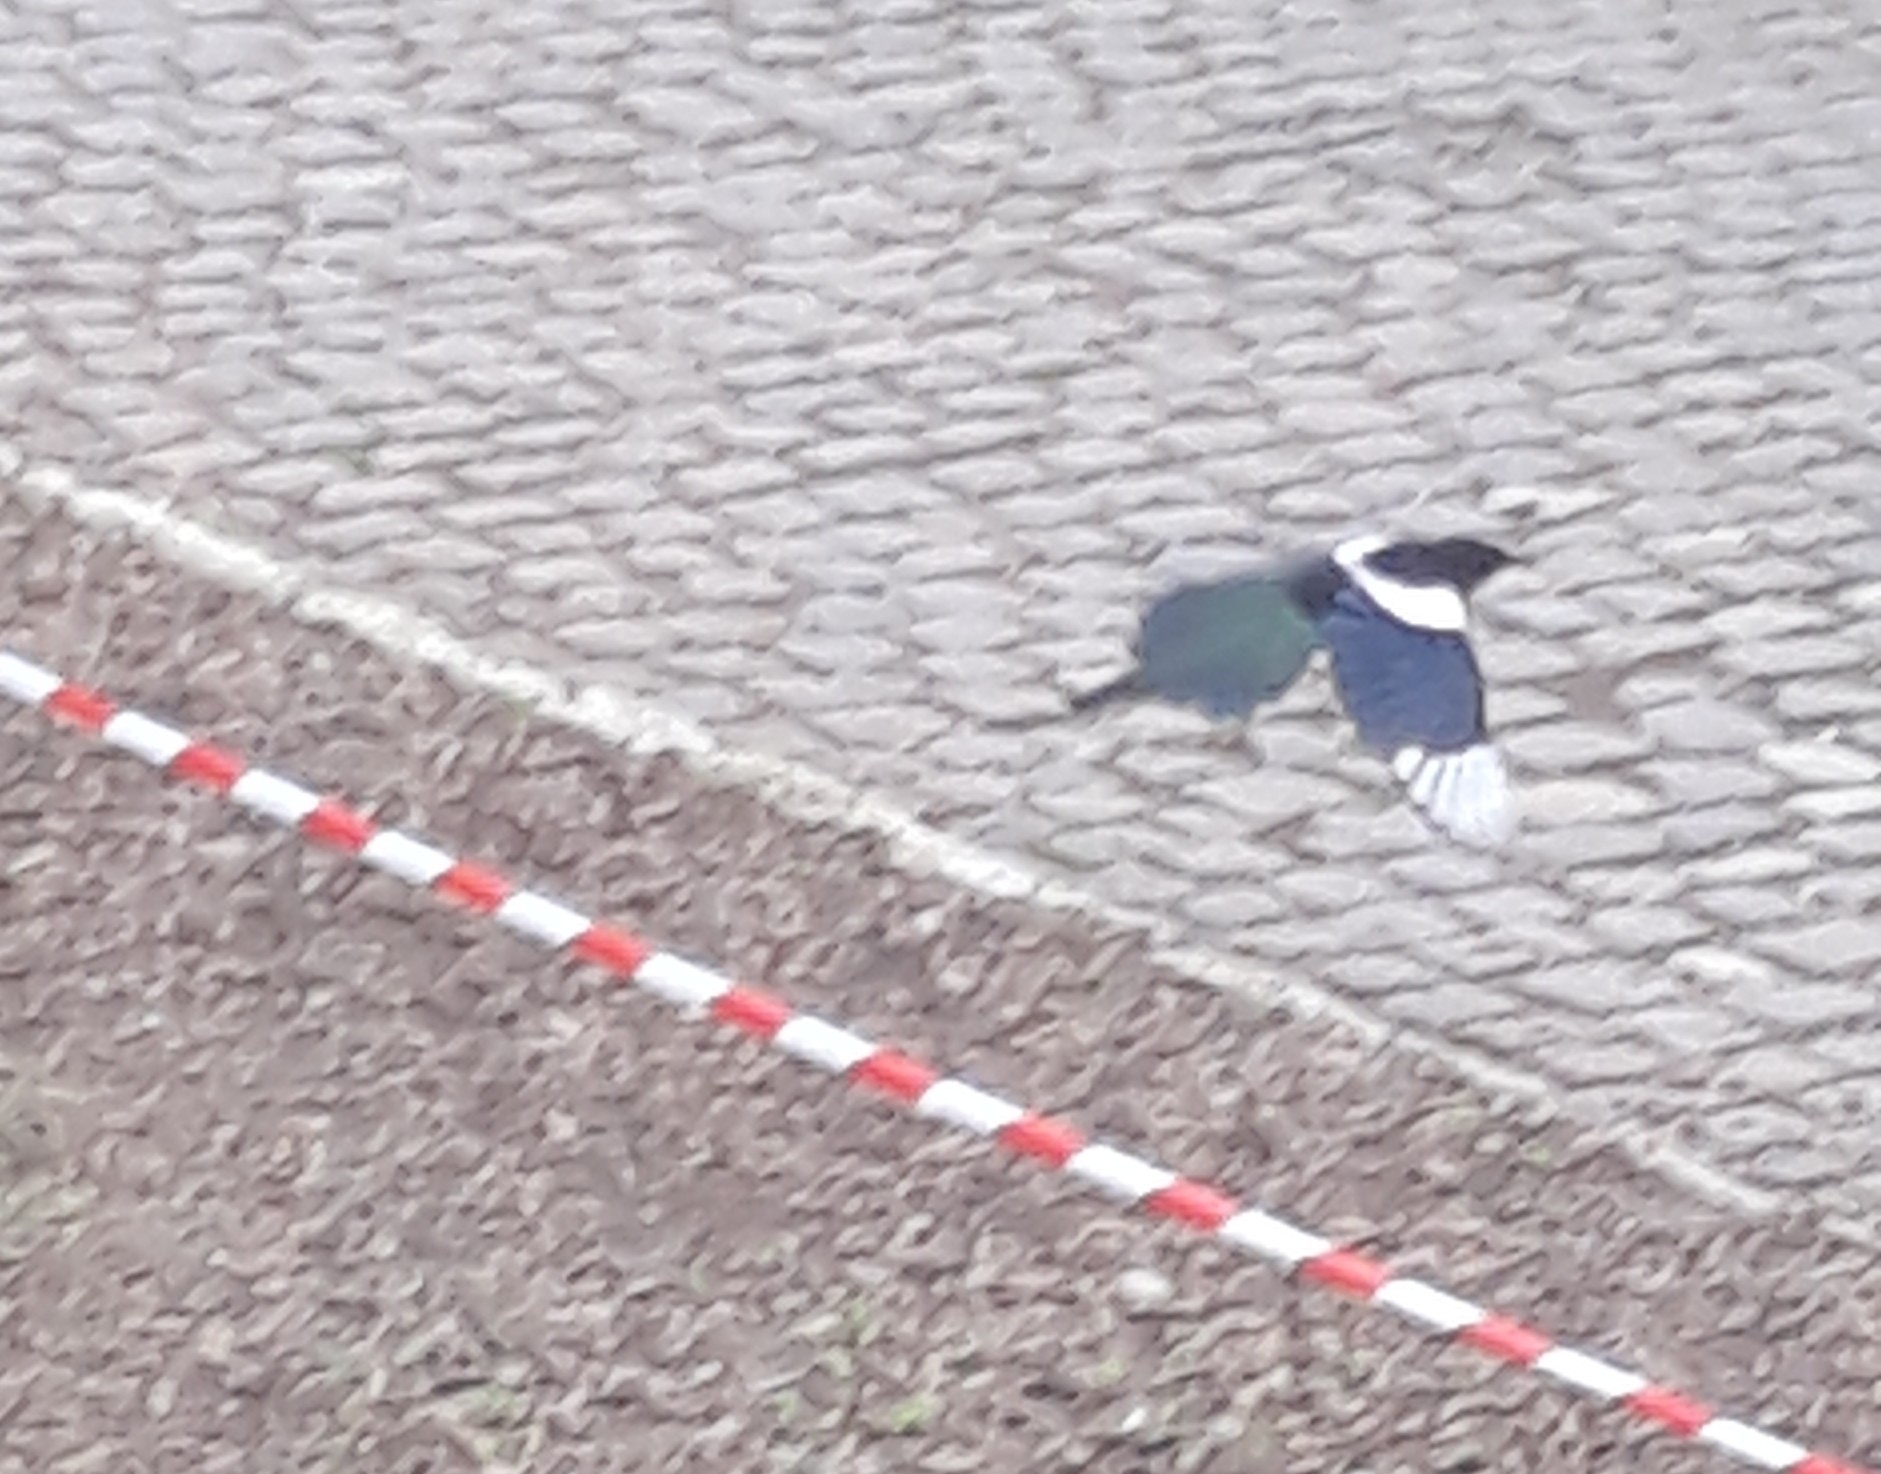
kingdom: Animalia
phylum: Chordata
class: Aves
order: Passeriformes
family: Corvidae
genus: Pica
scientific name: Pica pica
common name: Eurasian magpie
